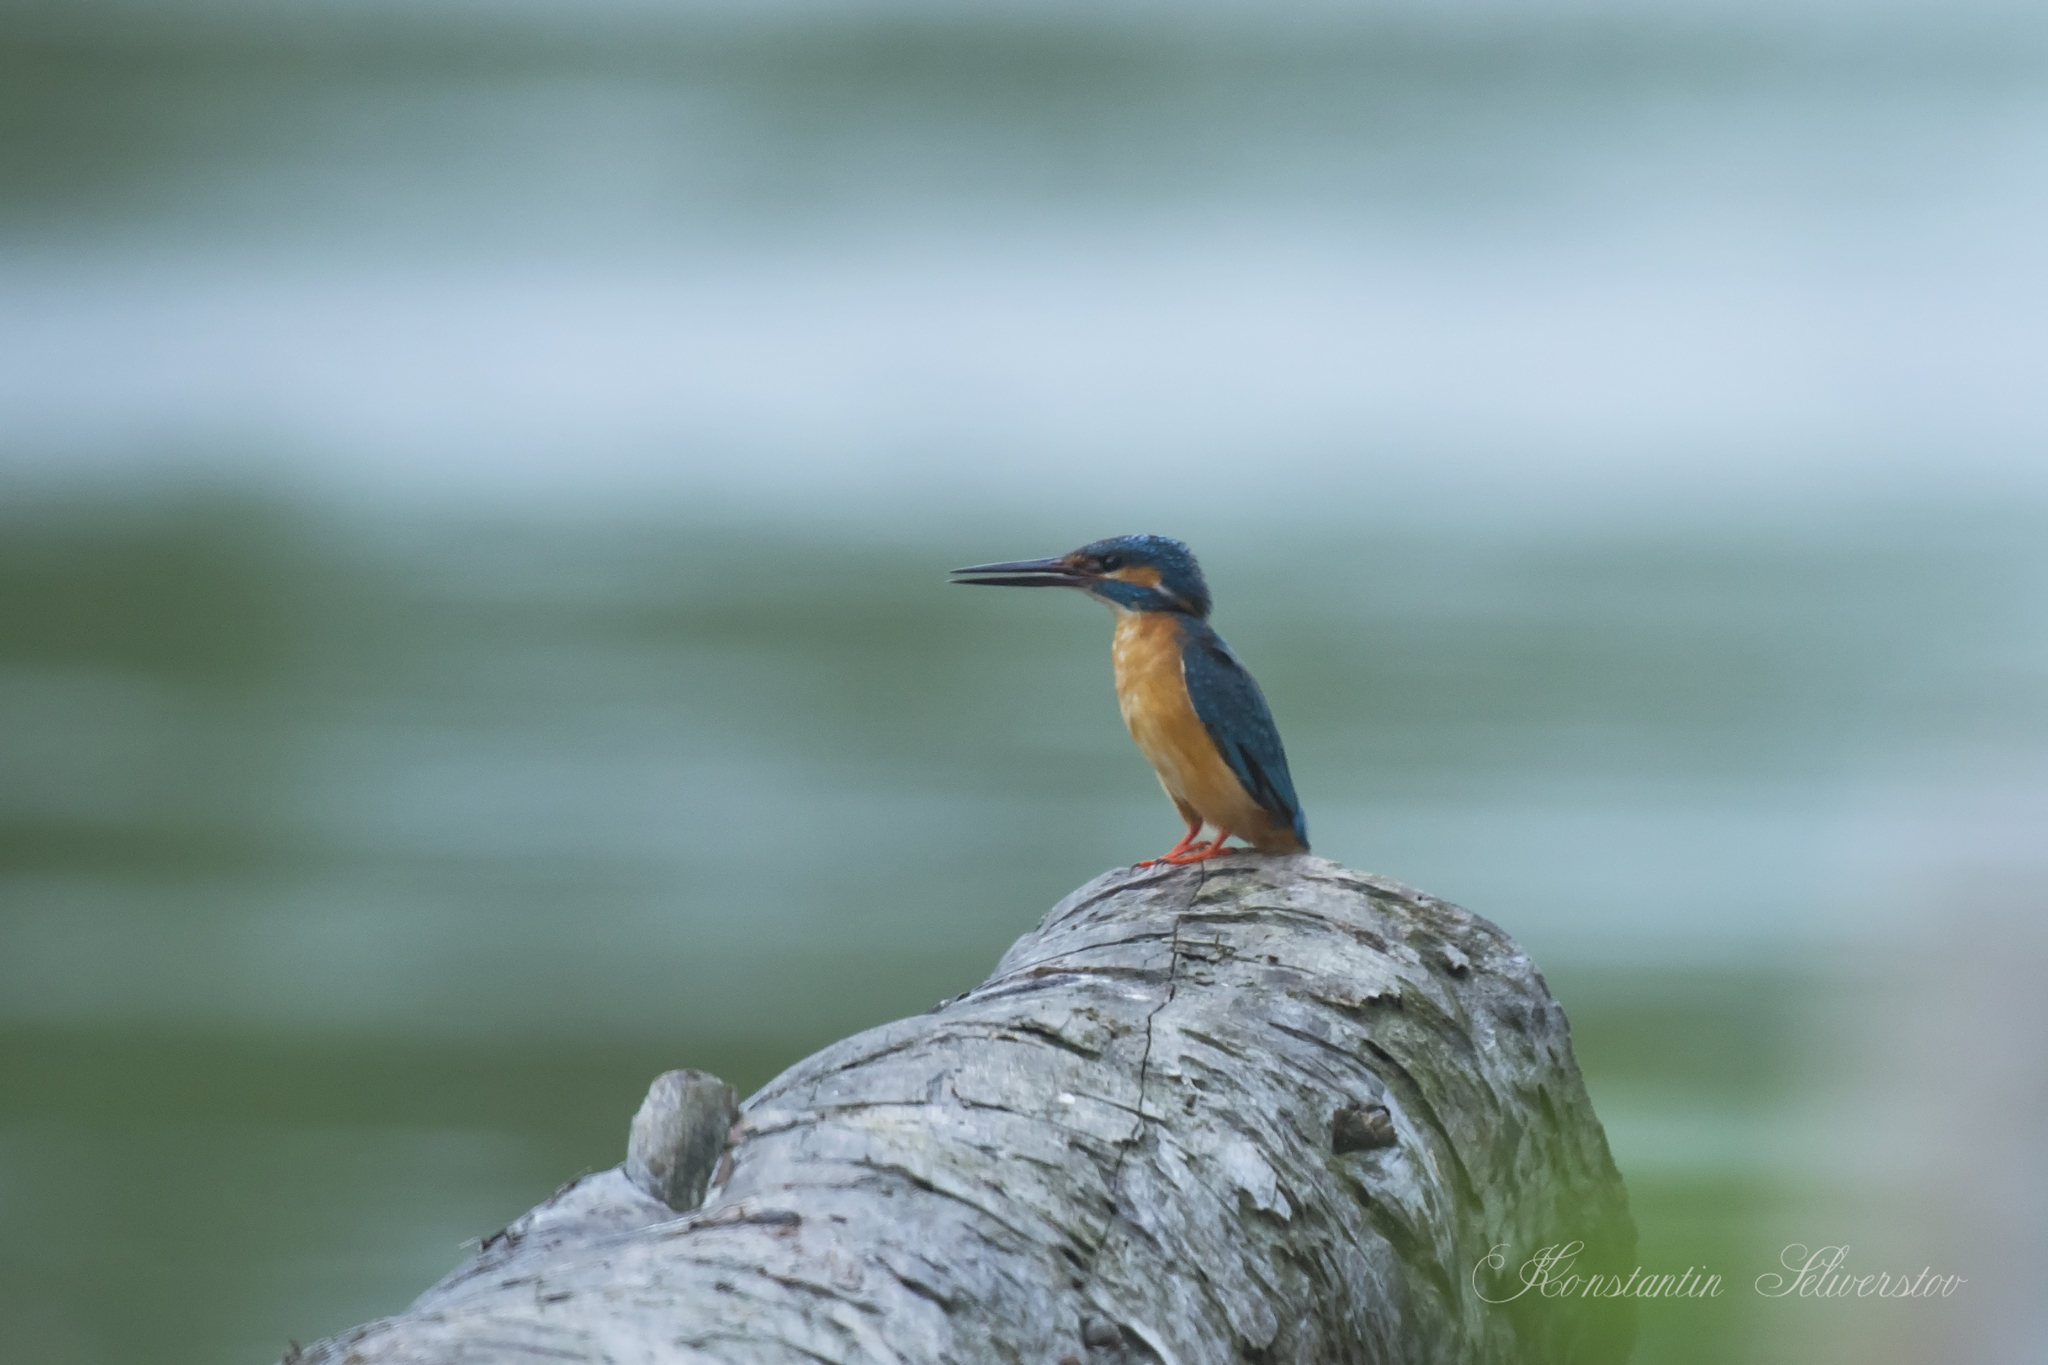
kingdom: Animalia
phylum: Chordata
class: Aves
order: Coraciiformes
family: Alcedinidae
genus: Alcedo
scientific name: Alcedo atthis
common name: Common kingfisher
